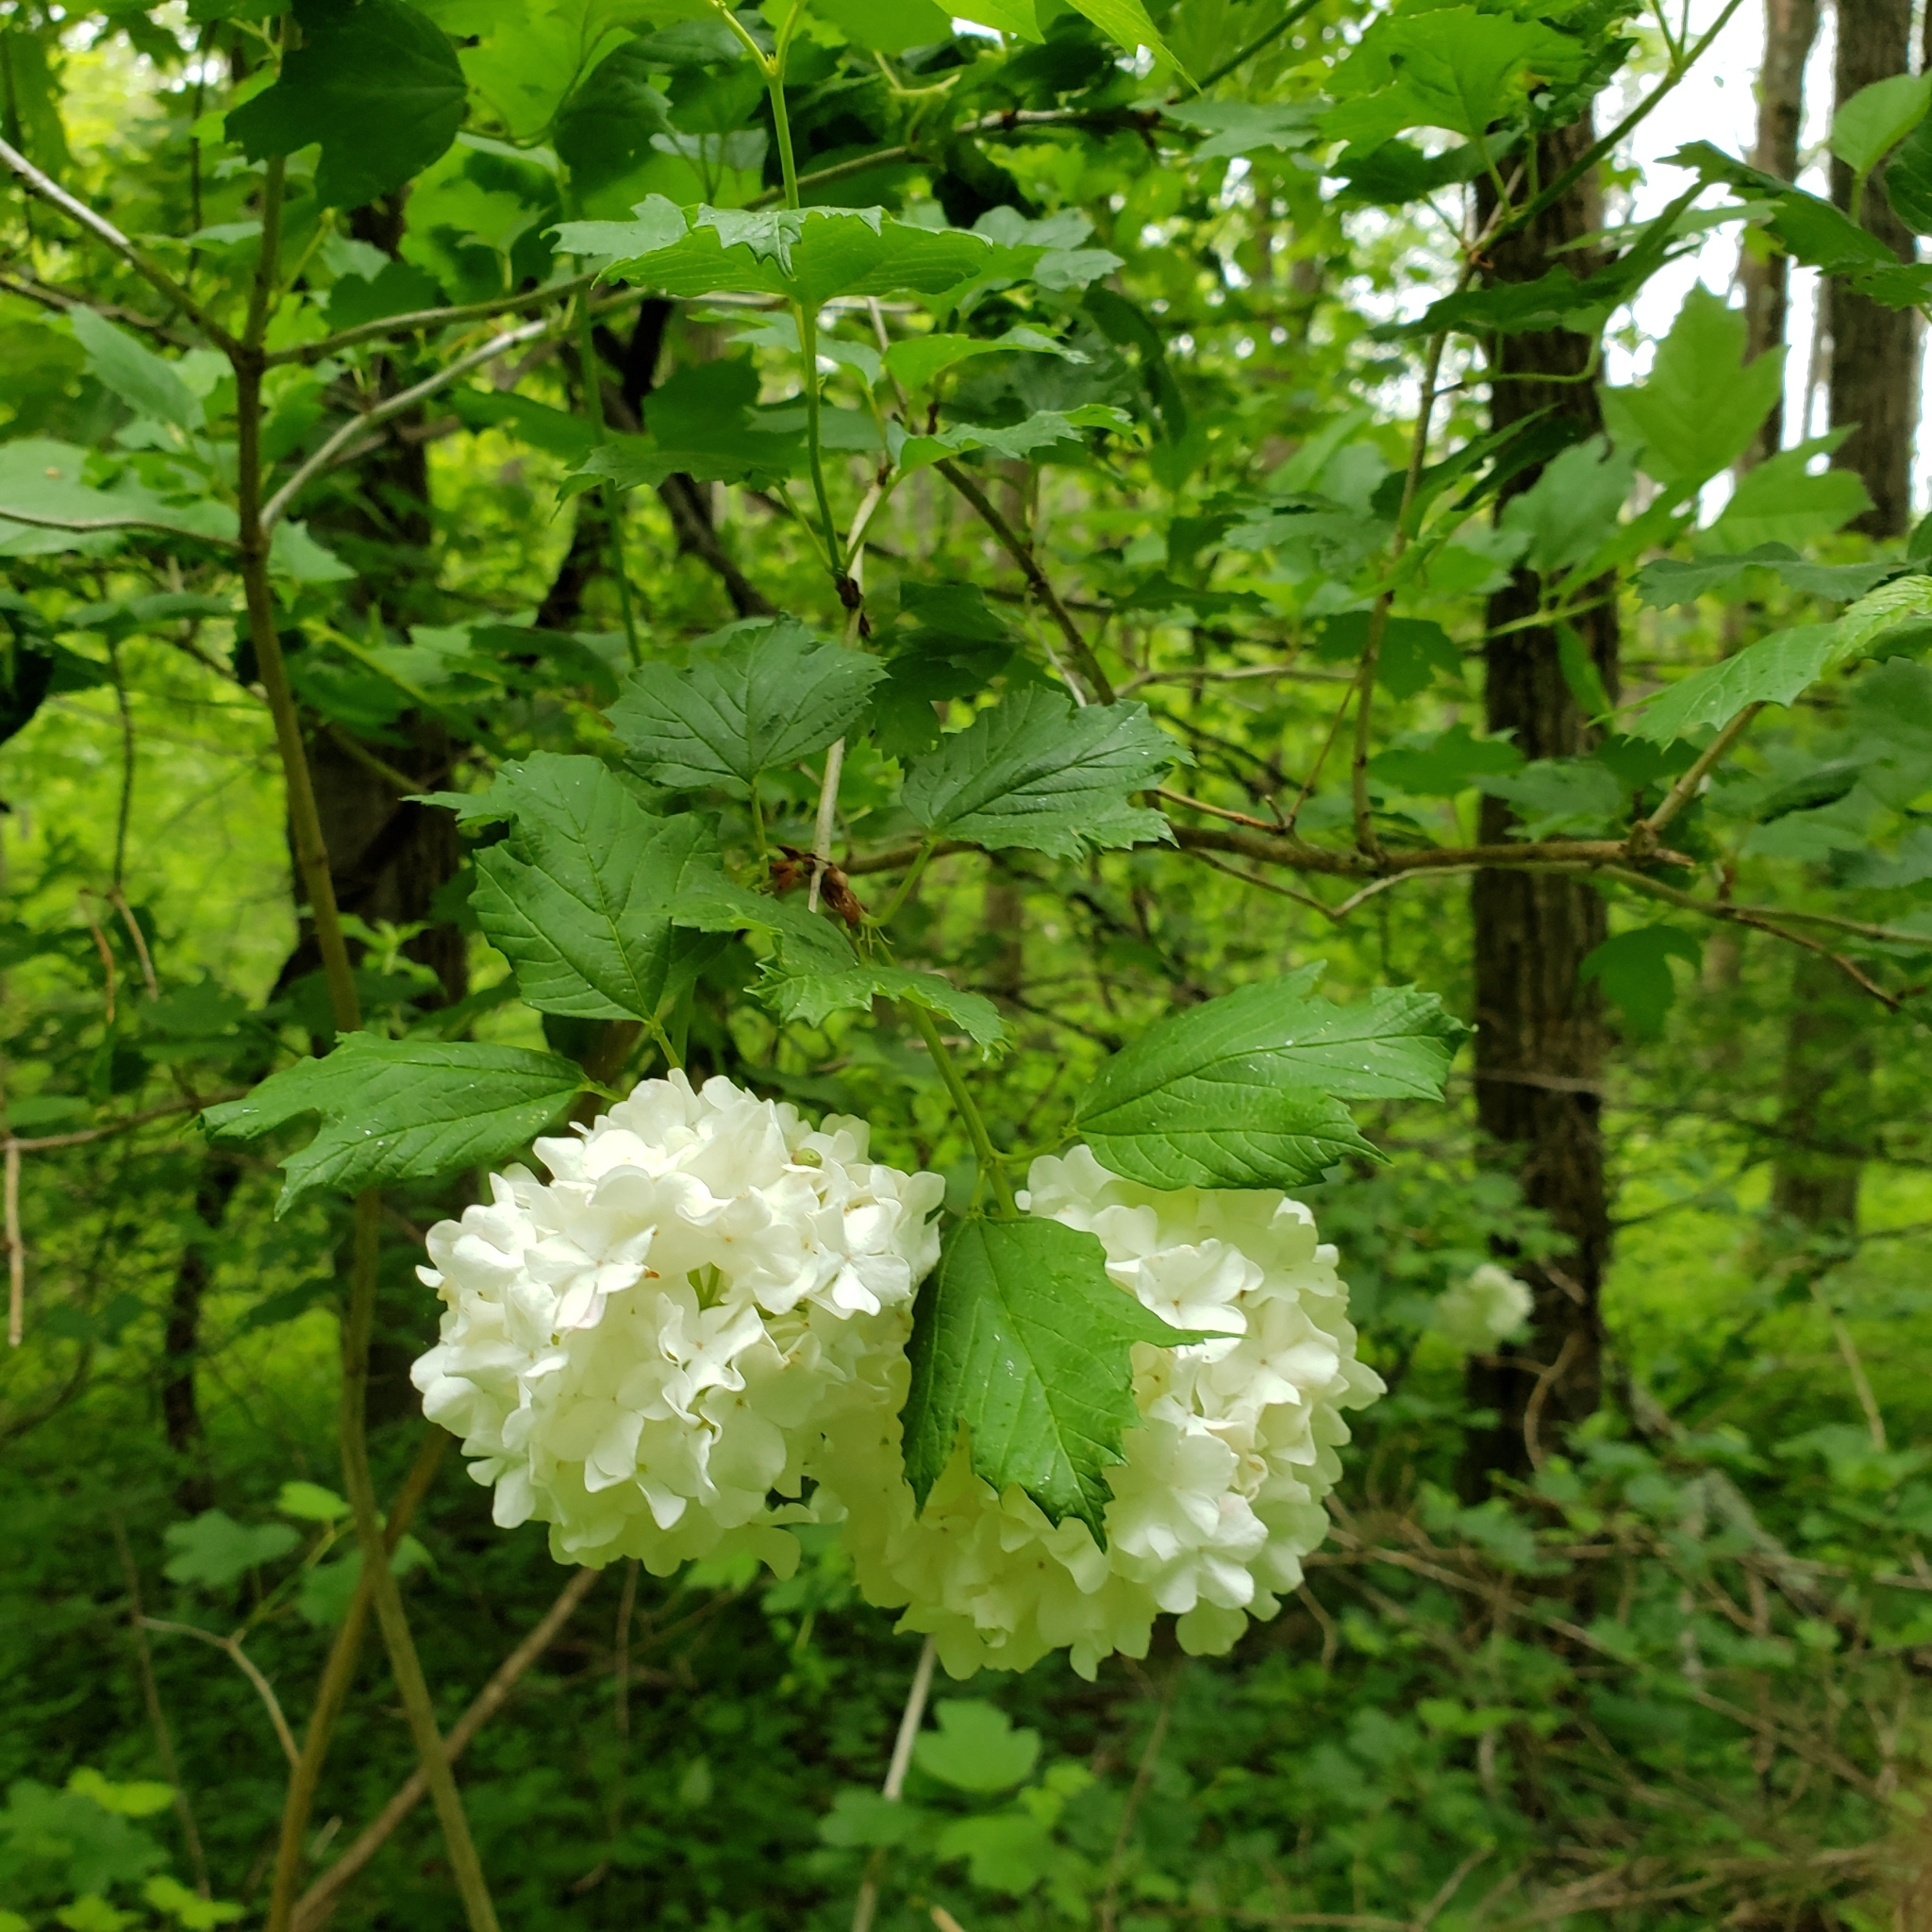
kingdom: Plantae
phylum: Tracheophyta
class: Magnoliopsida
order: Dipsacales
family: Viburnaceae
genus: Viburnum
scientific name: Viburnum opulus
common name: Guelder-rose
